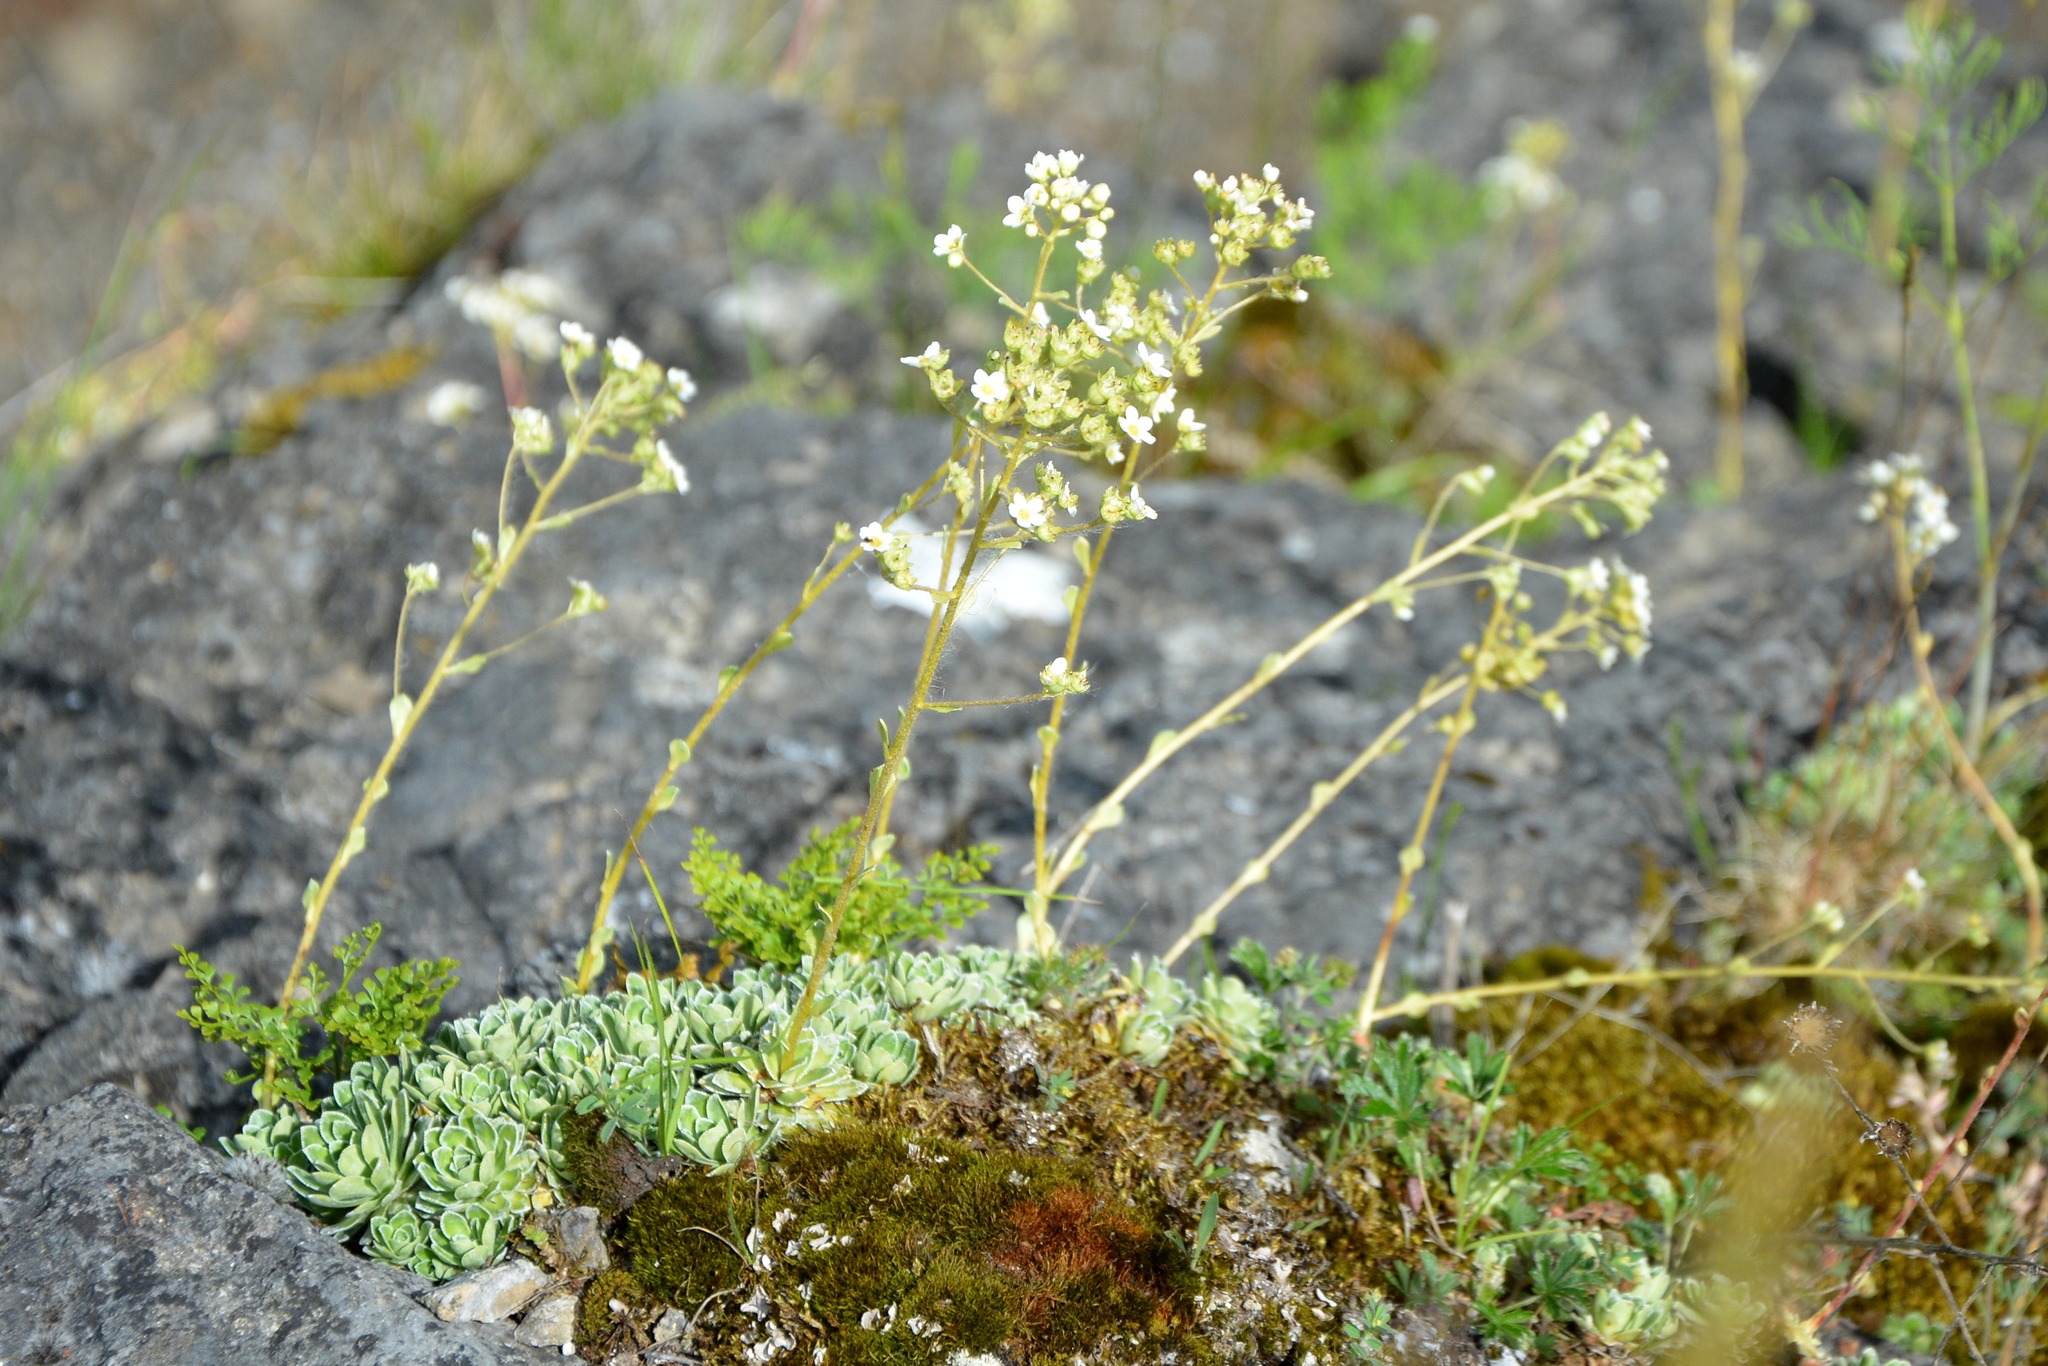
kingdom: Plantae
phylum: Tracheophyta
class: Magnoliopsida
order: Saxifragales
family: Saxifragaceae
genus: Saxifraga
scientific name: Saxifraga paniculata
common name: Livelong saxifrage
